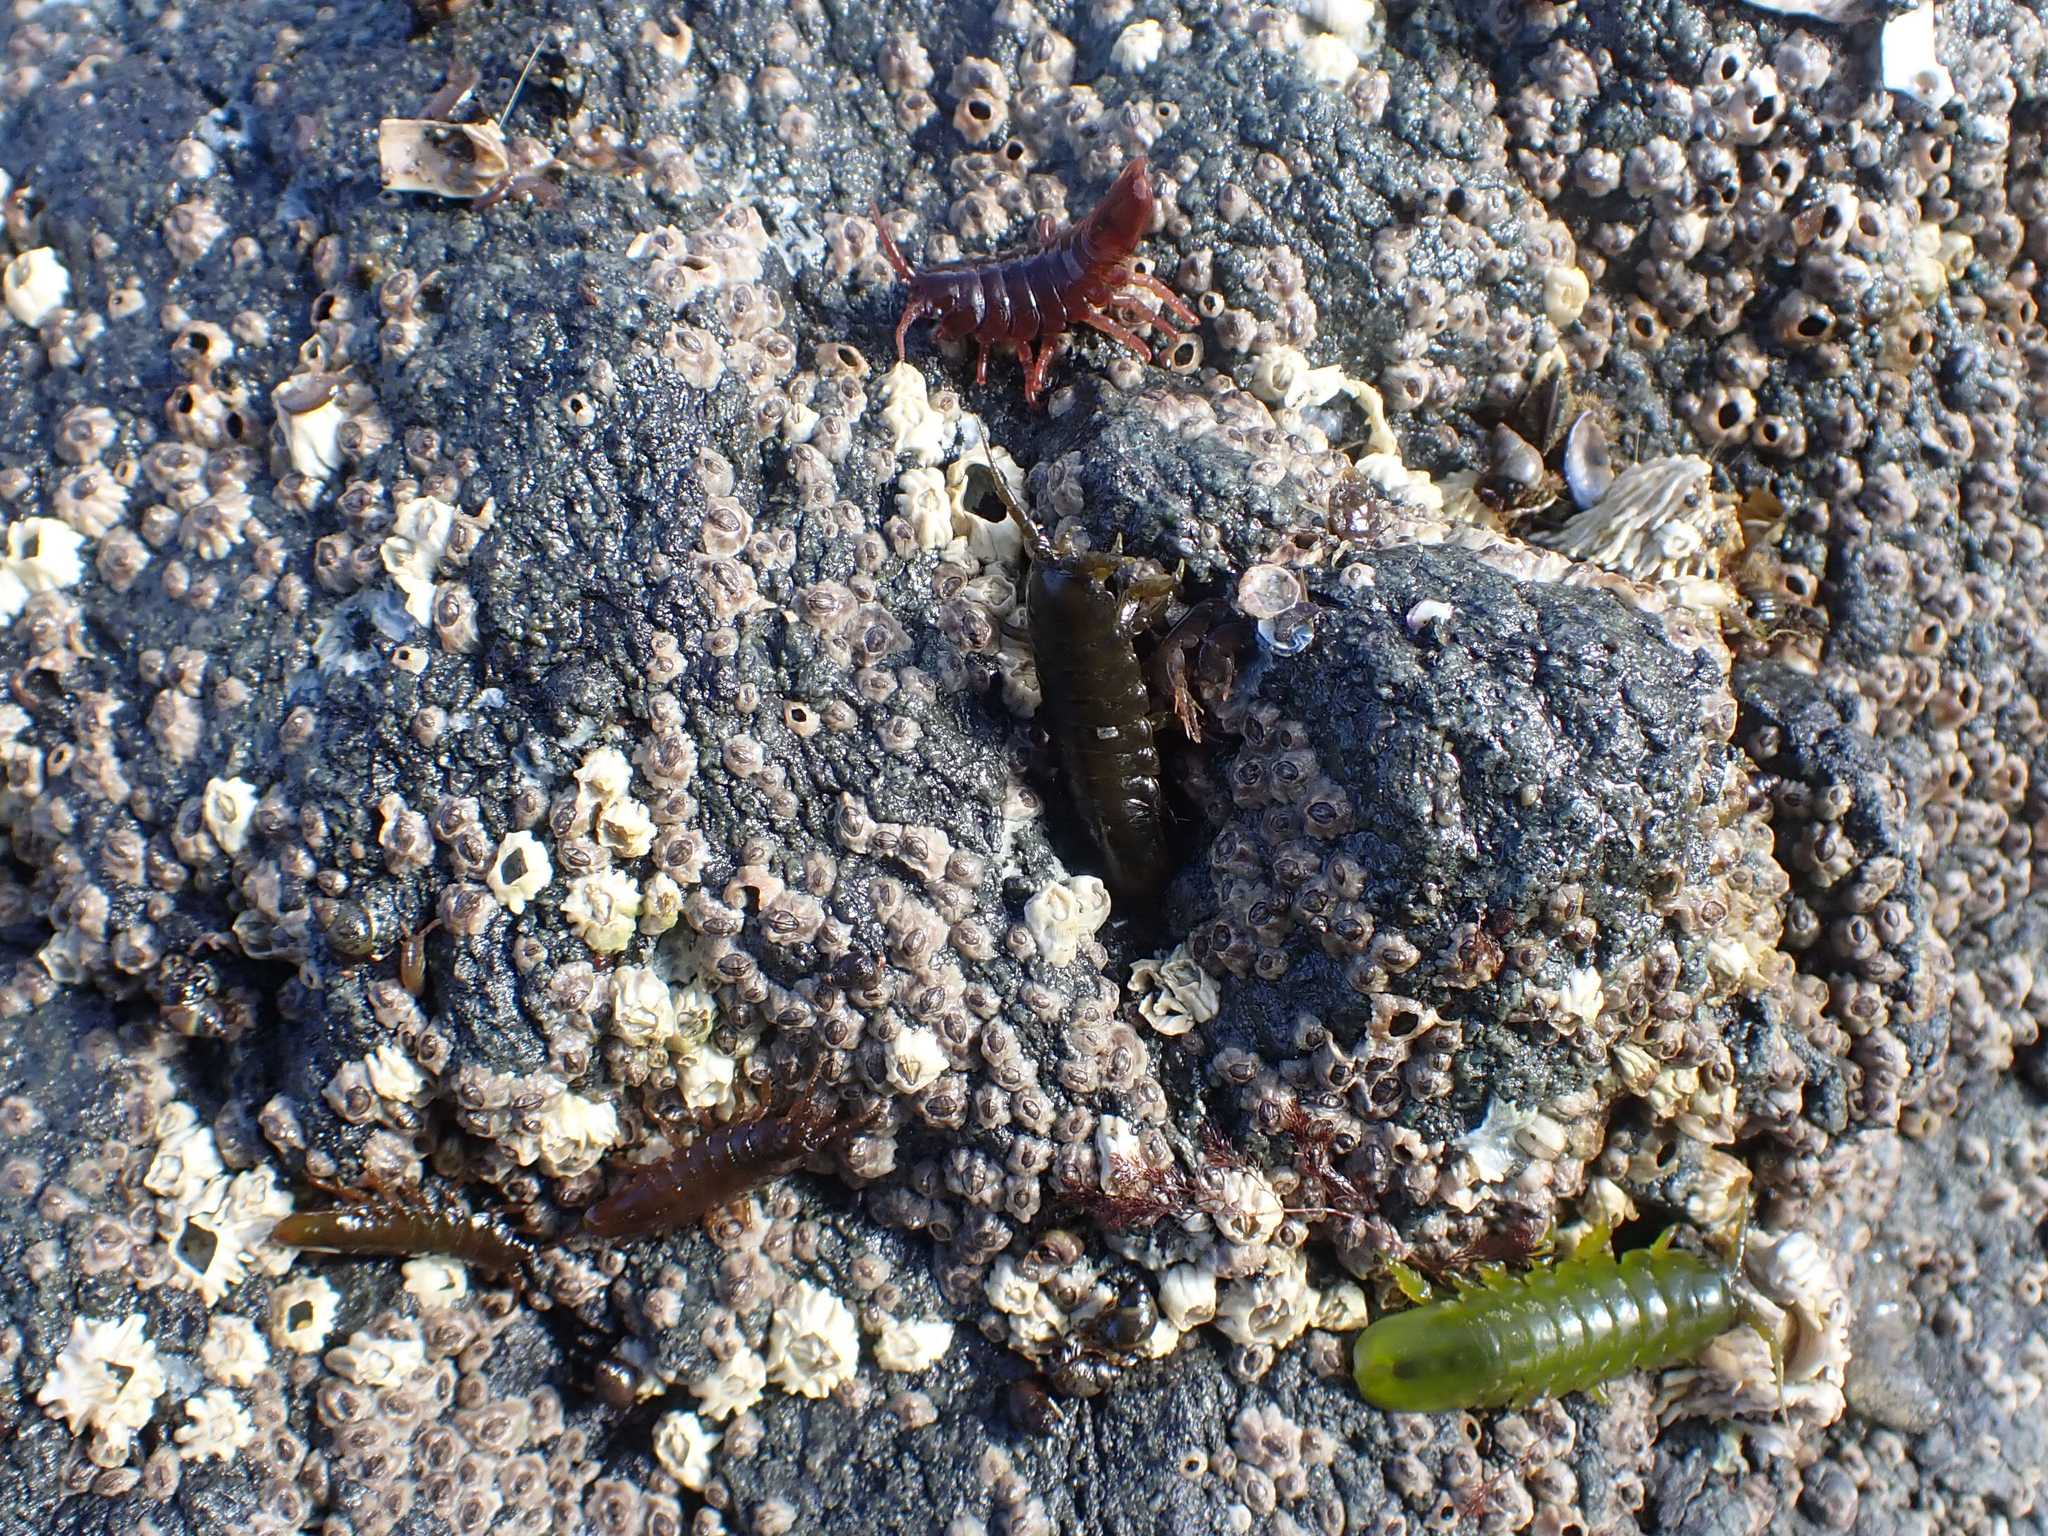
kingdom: Animalia
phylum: Arthropoda
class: Malacostraca
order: Isopoda
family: Idoteidae
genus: Pentidotea
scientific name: Pentidotea wosnesenskii
